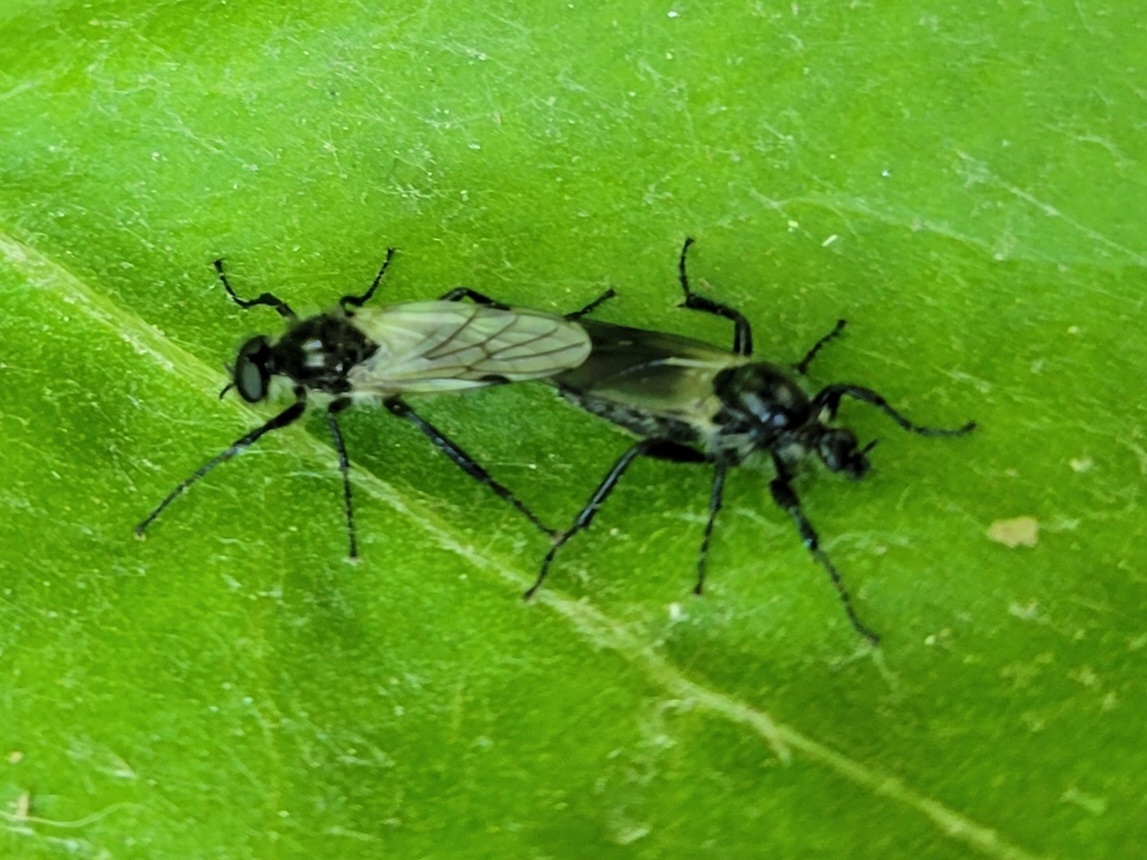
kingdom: Animalia
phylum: Arthropoda
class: Insecta
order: Diptera
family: Bibionidae
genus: Bibio
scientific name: Bibio albipennis
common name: White-winged march fly
